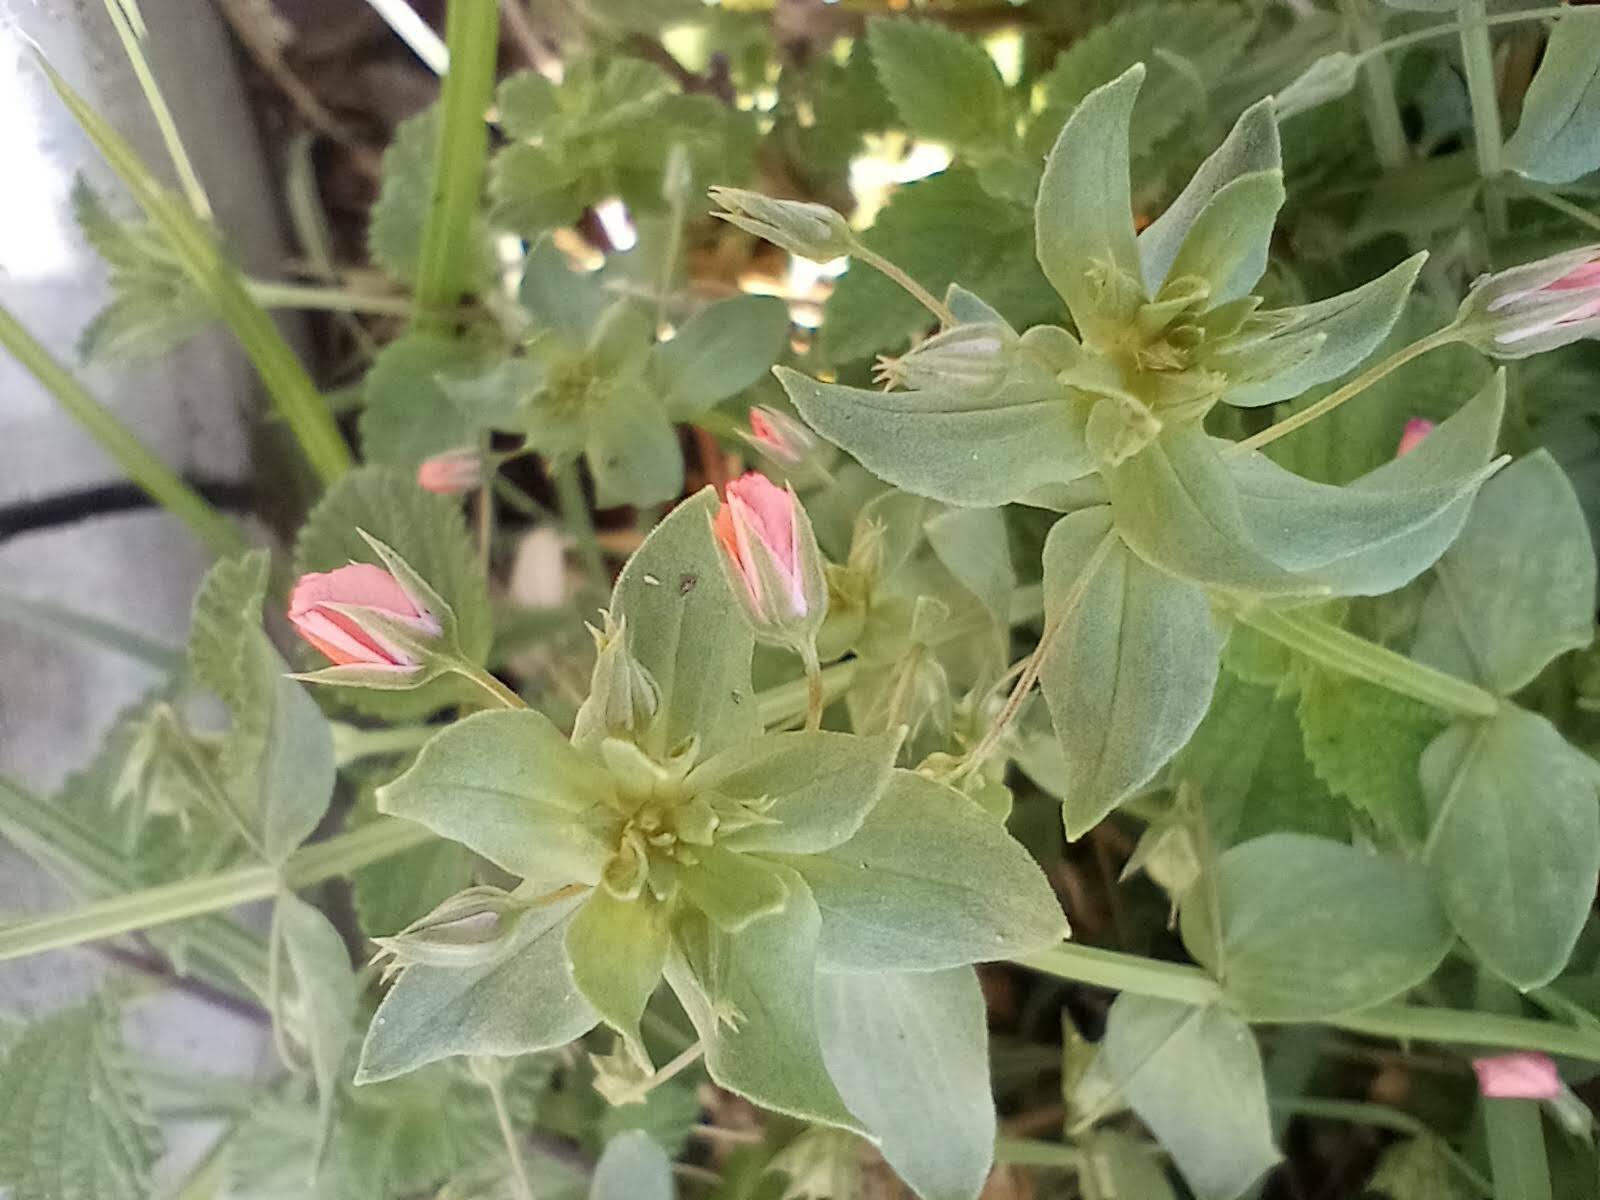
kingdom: Plantae
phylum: Tracheophyta
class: Magnoliopsida
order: Ericales
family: Primulaceae
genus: Lysimachia
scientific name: Lysimachia arvensis
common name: Scarlet pimpernel
